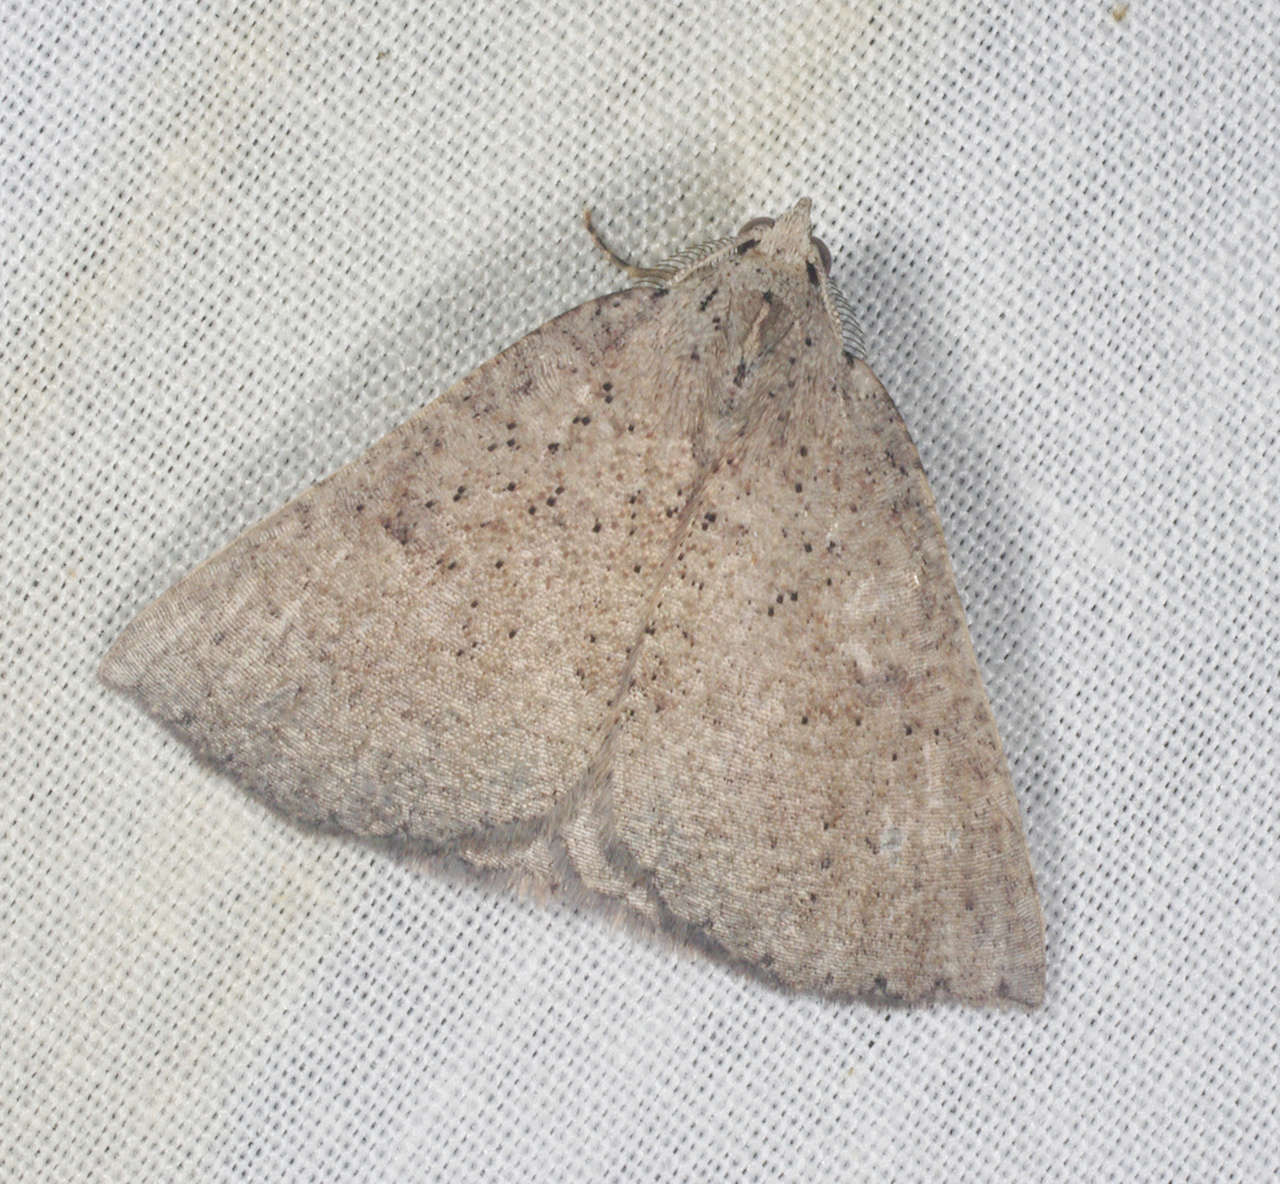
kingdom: Animalia
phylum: Arthropoda
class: Insecta
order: Lepidoptera
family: Geometridae
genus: Amelora
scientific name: Amelora
